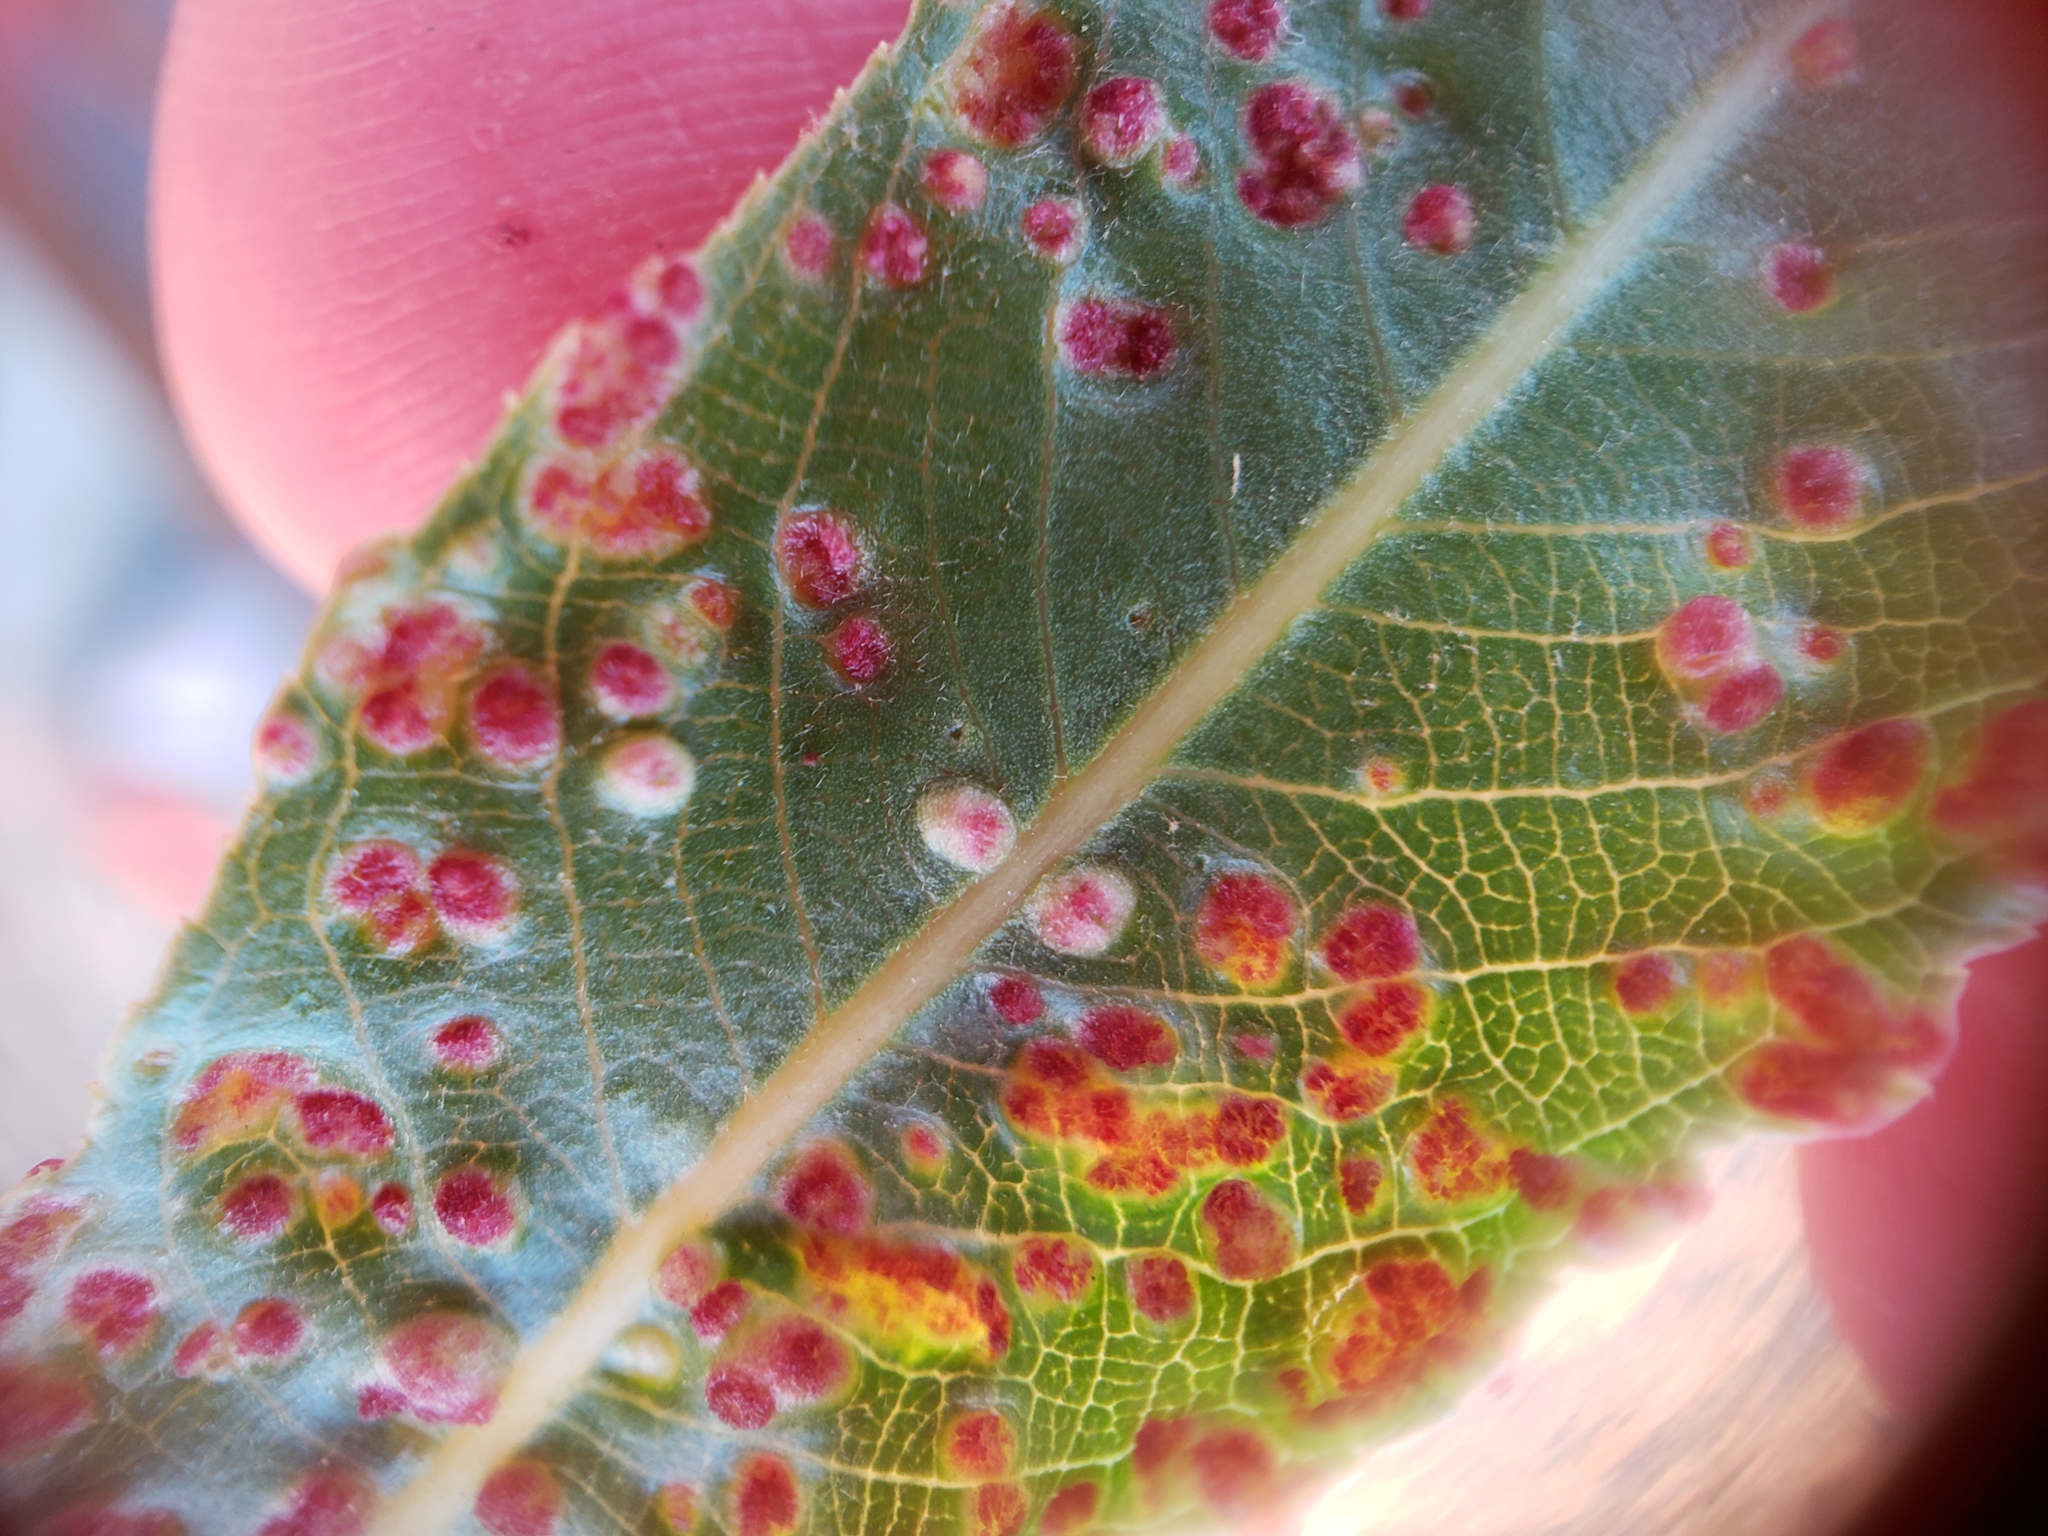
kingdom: Animalia
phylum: Arthropoda
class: Arachnida
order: Trombidiformes
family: Eriophyidae
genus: Aculus
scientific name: Aculus tetanothrix
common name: Willow bead gall mite
